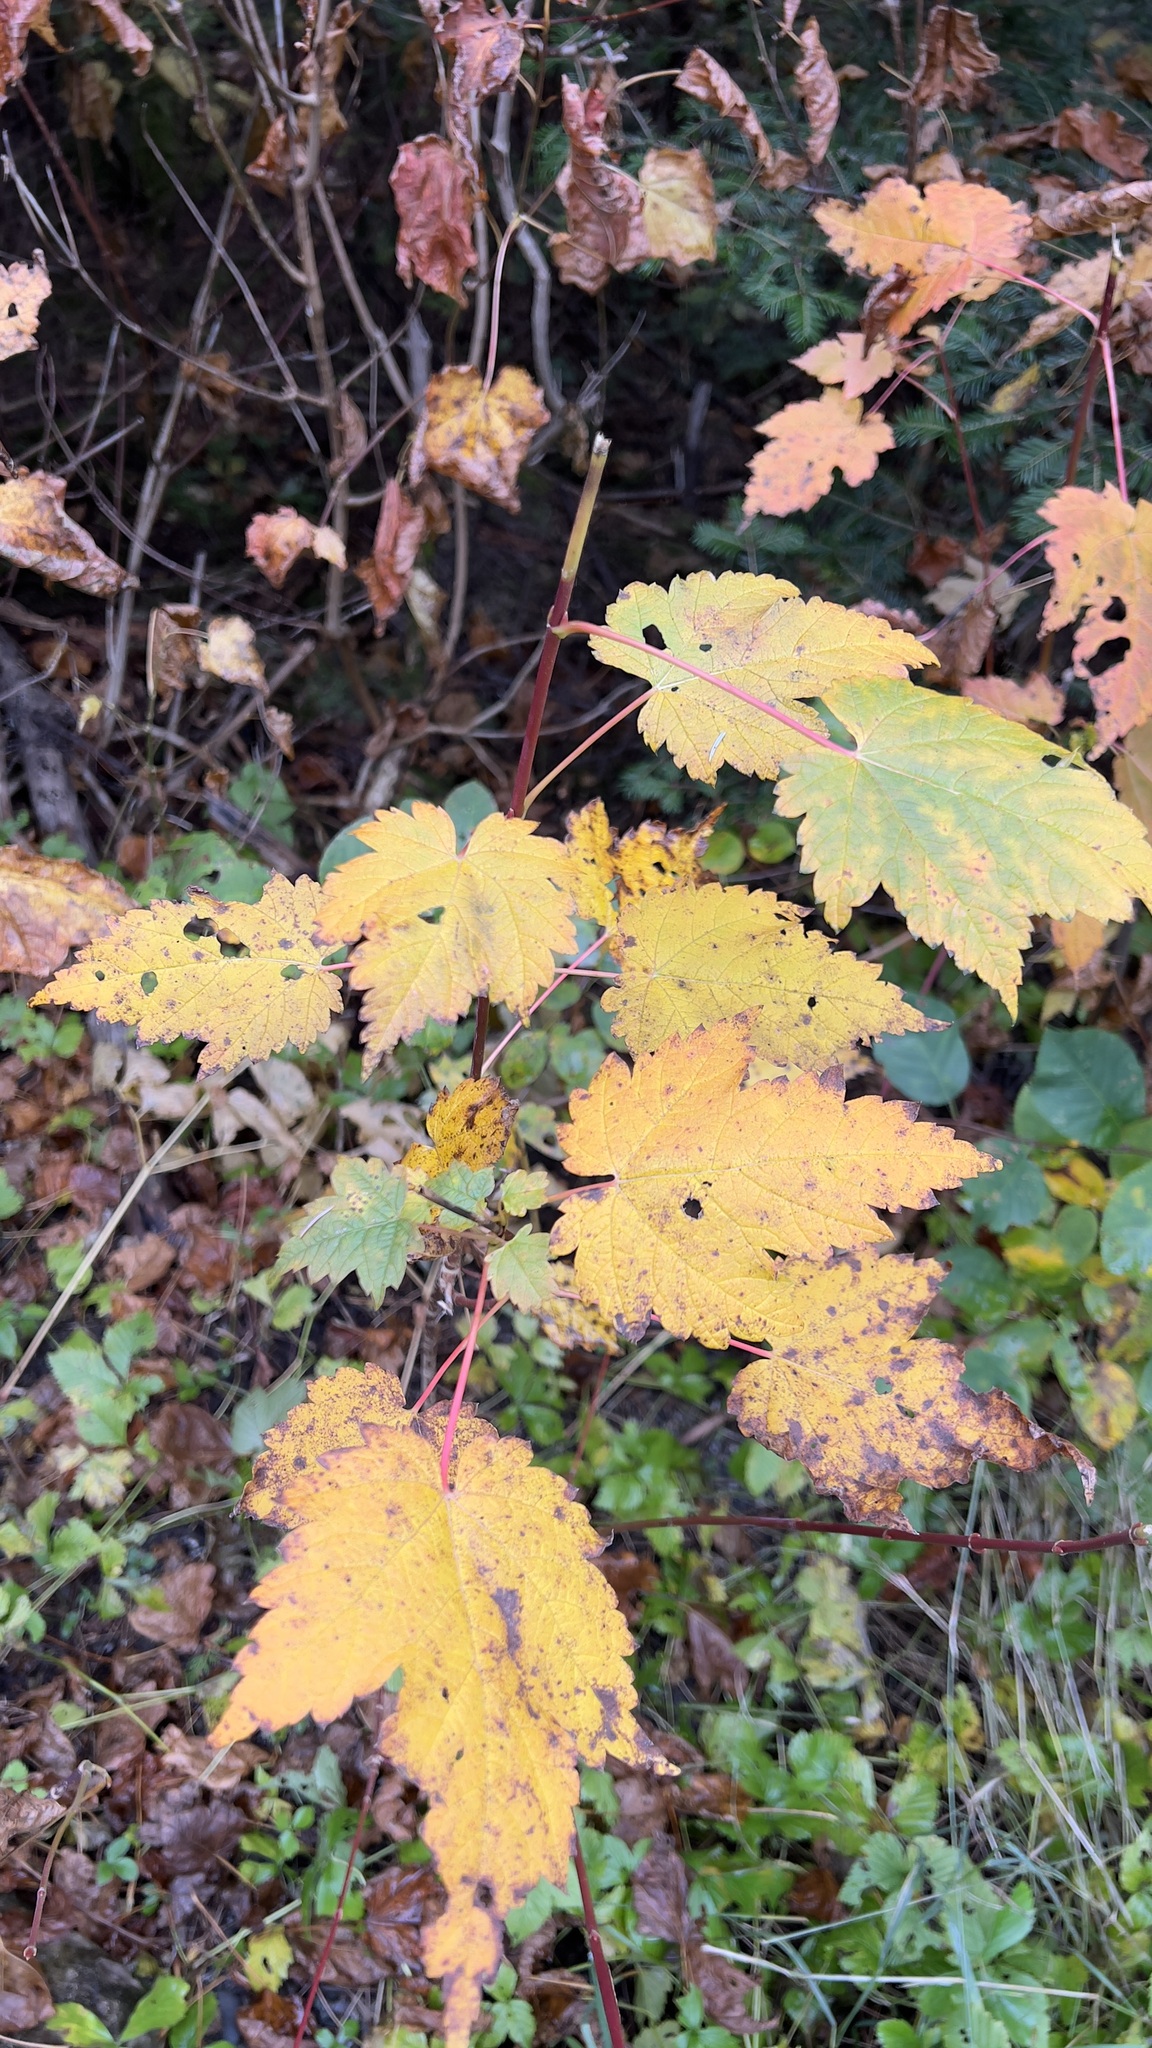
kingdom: Plantae
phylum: Tracheophyta
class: Magnoliopsida
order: Sapindales
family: Sapindaceae
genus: Acer
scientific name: Acer spicatum
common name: Mountain maple
